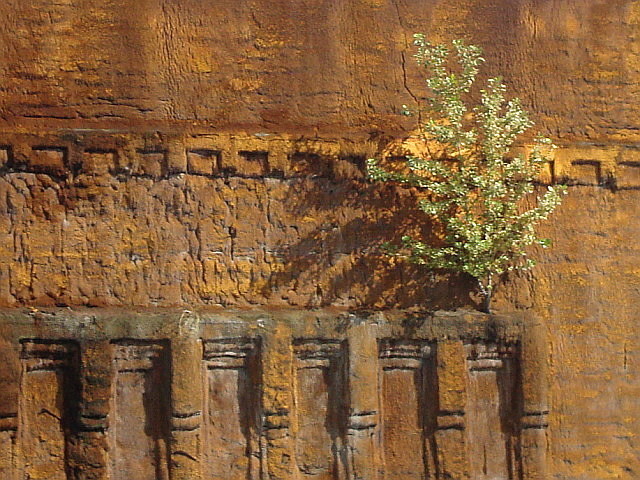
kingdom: Plantae
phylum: Tracheophyta
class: Magnoliopsida
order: Fagales
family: Betulaceae
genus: Betula
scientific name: Betula
